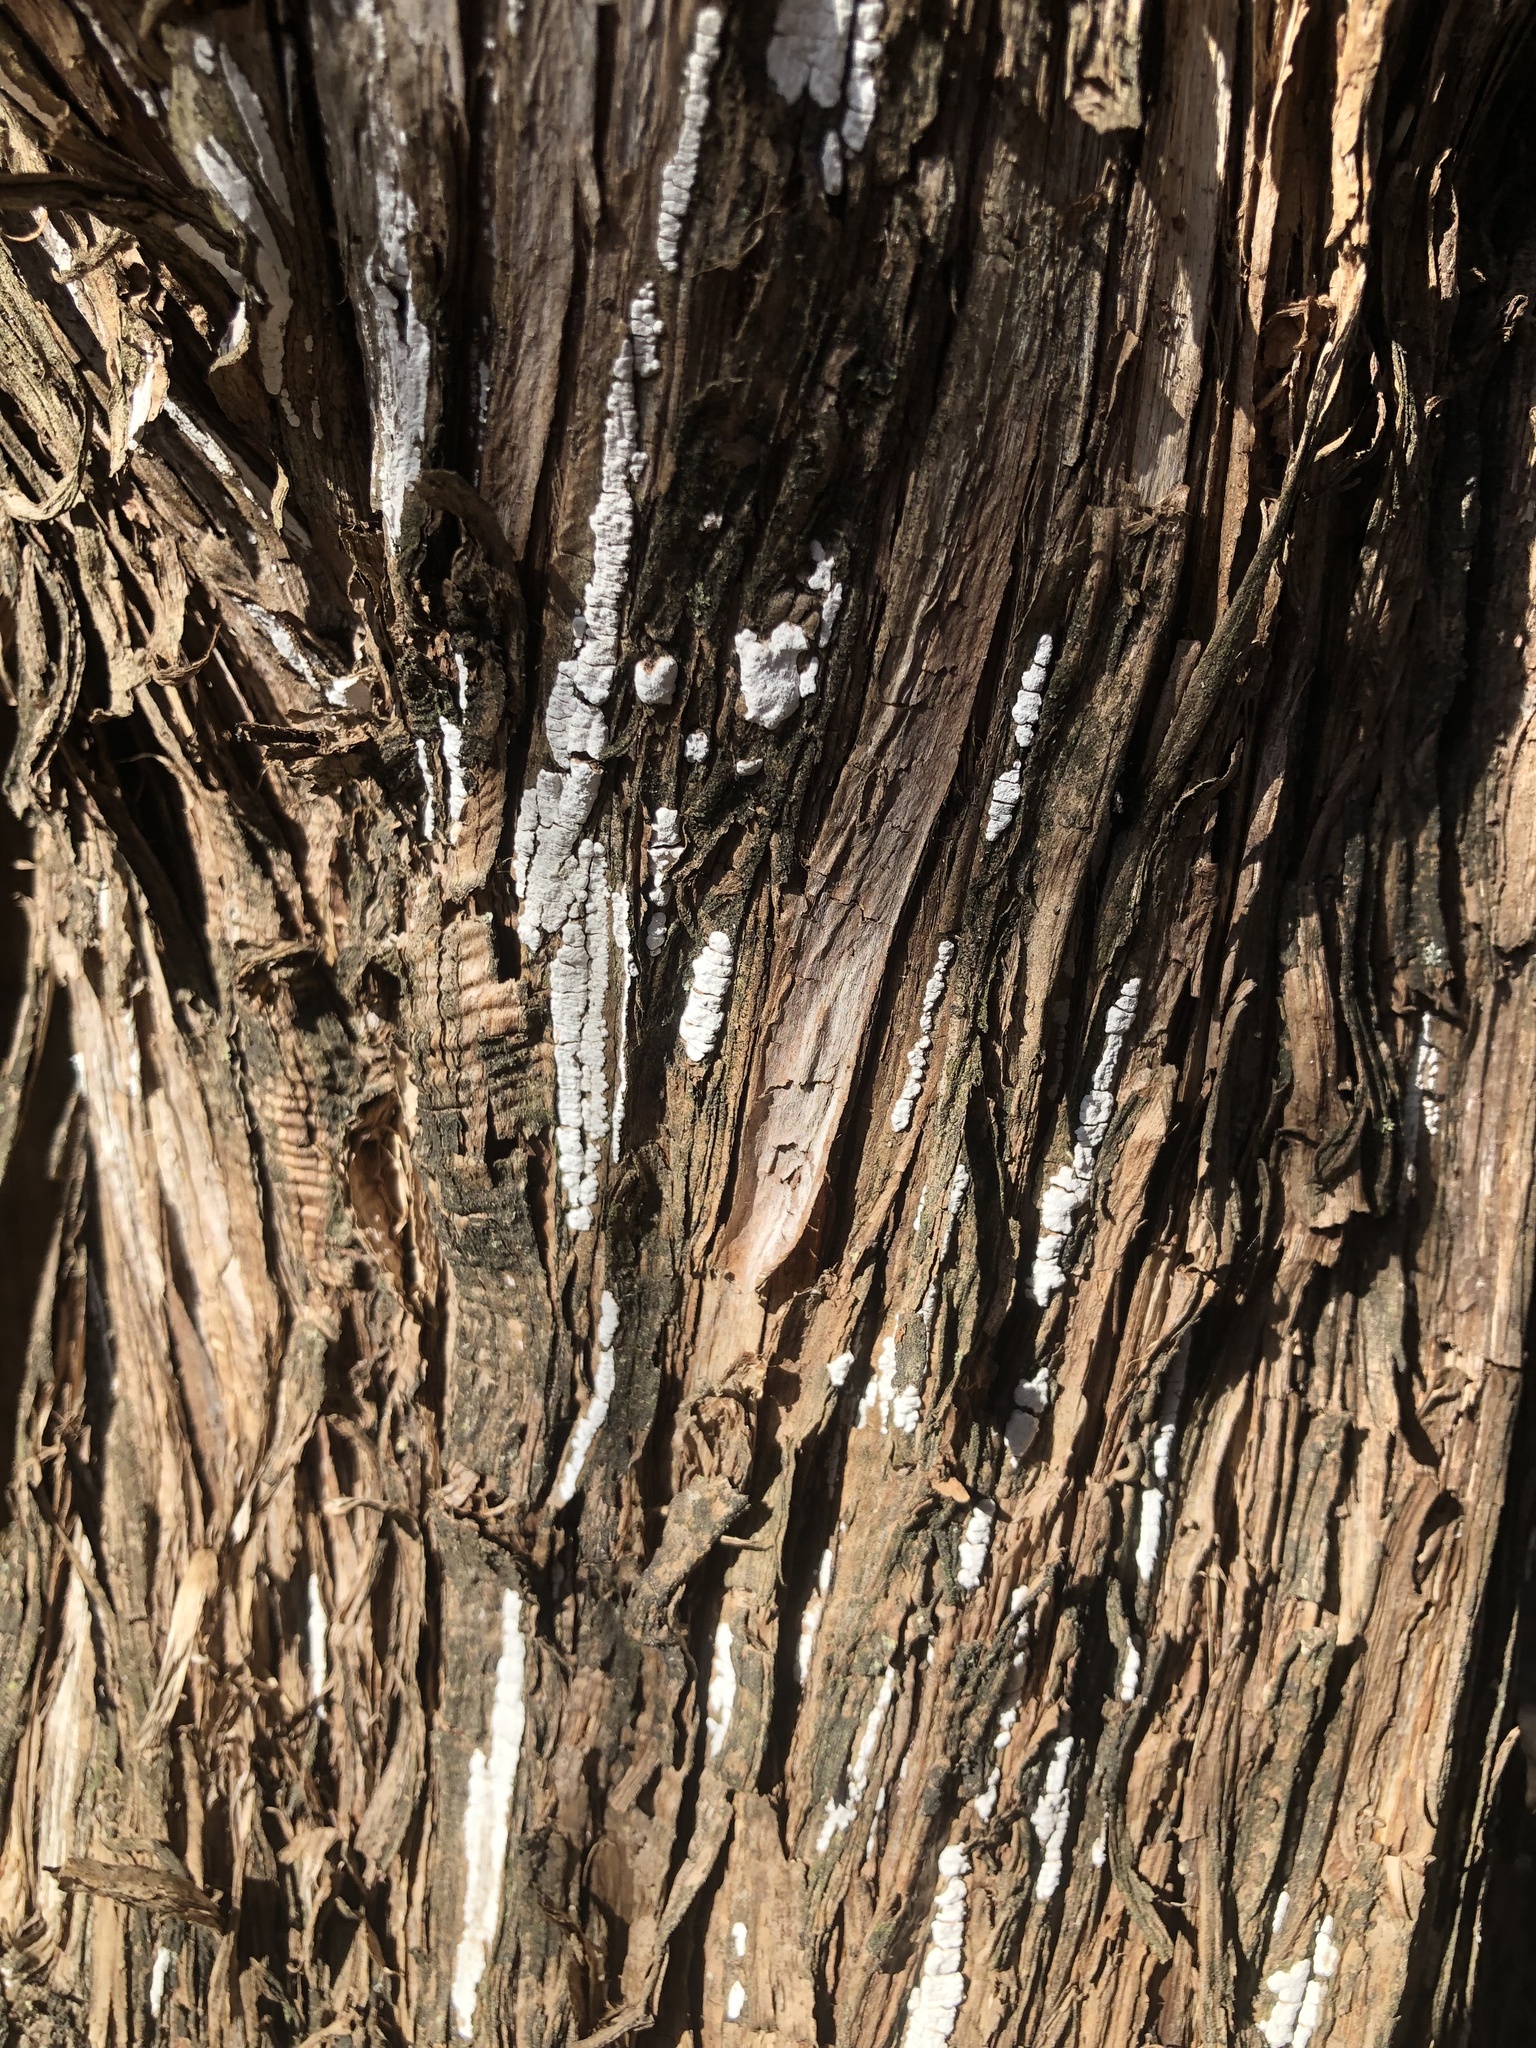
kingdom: Fungi
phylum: Basidiomycota
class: Agaricomycetes
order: Agaricales
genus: Dendrothele
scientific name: Dendrothele nivosa
